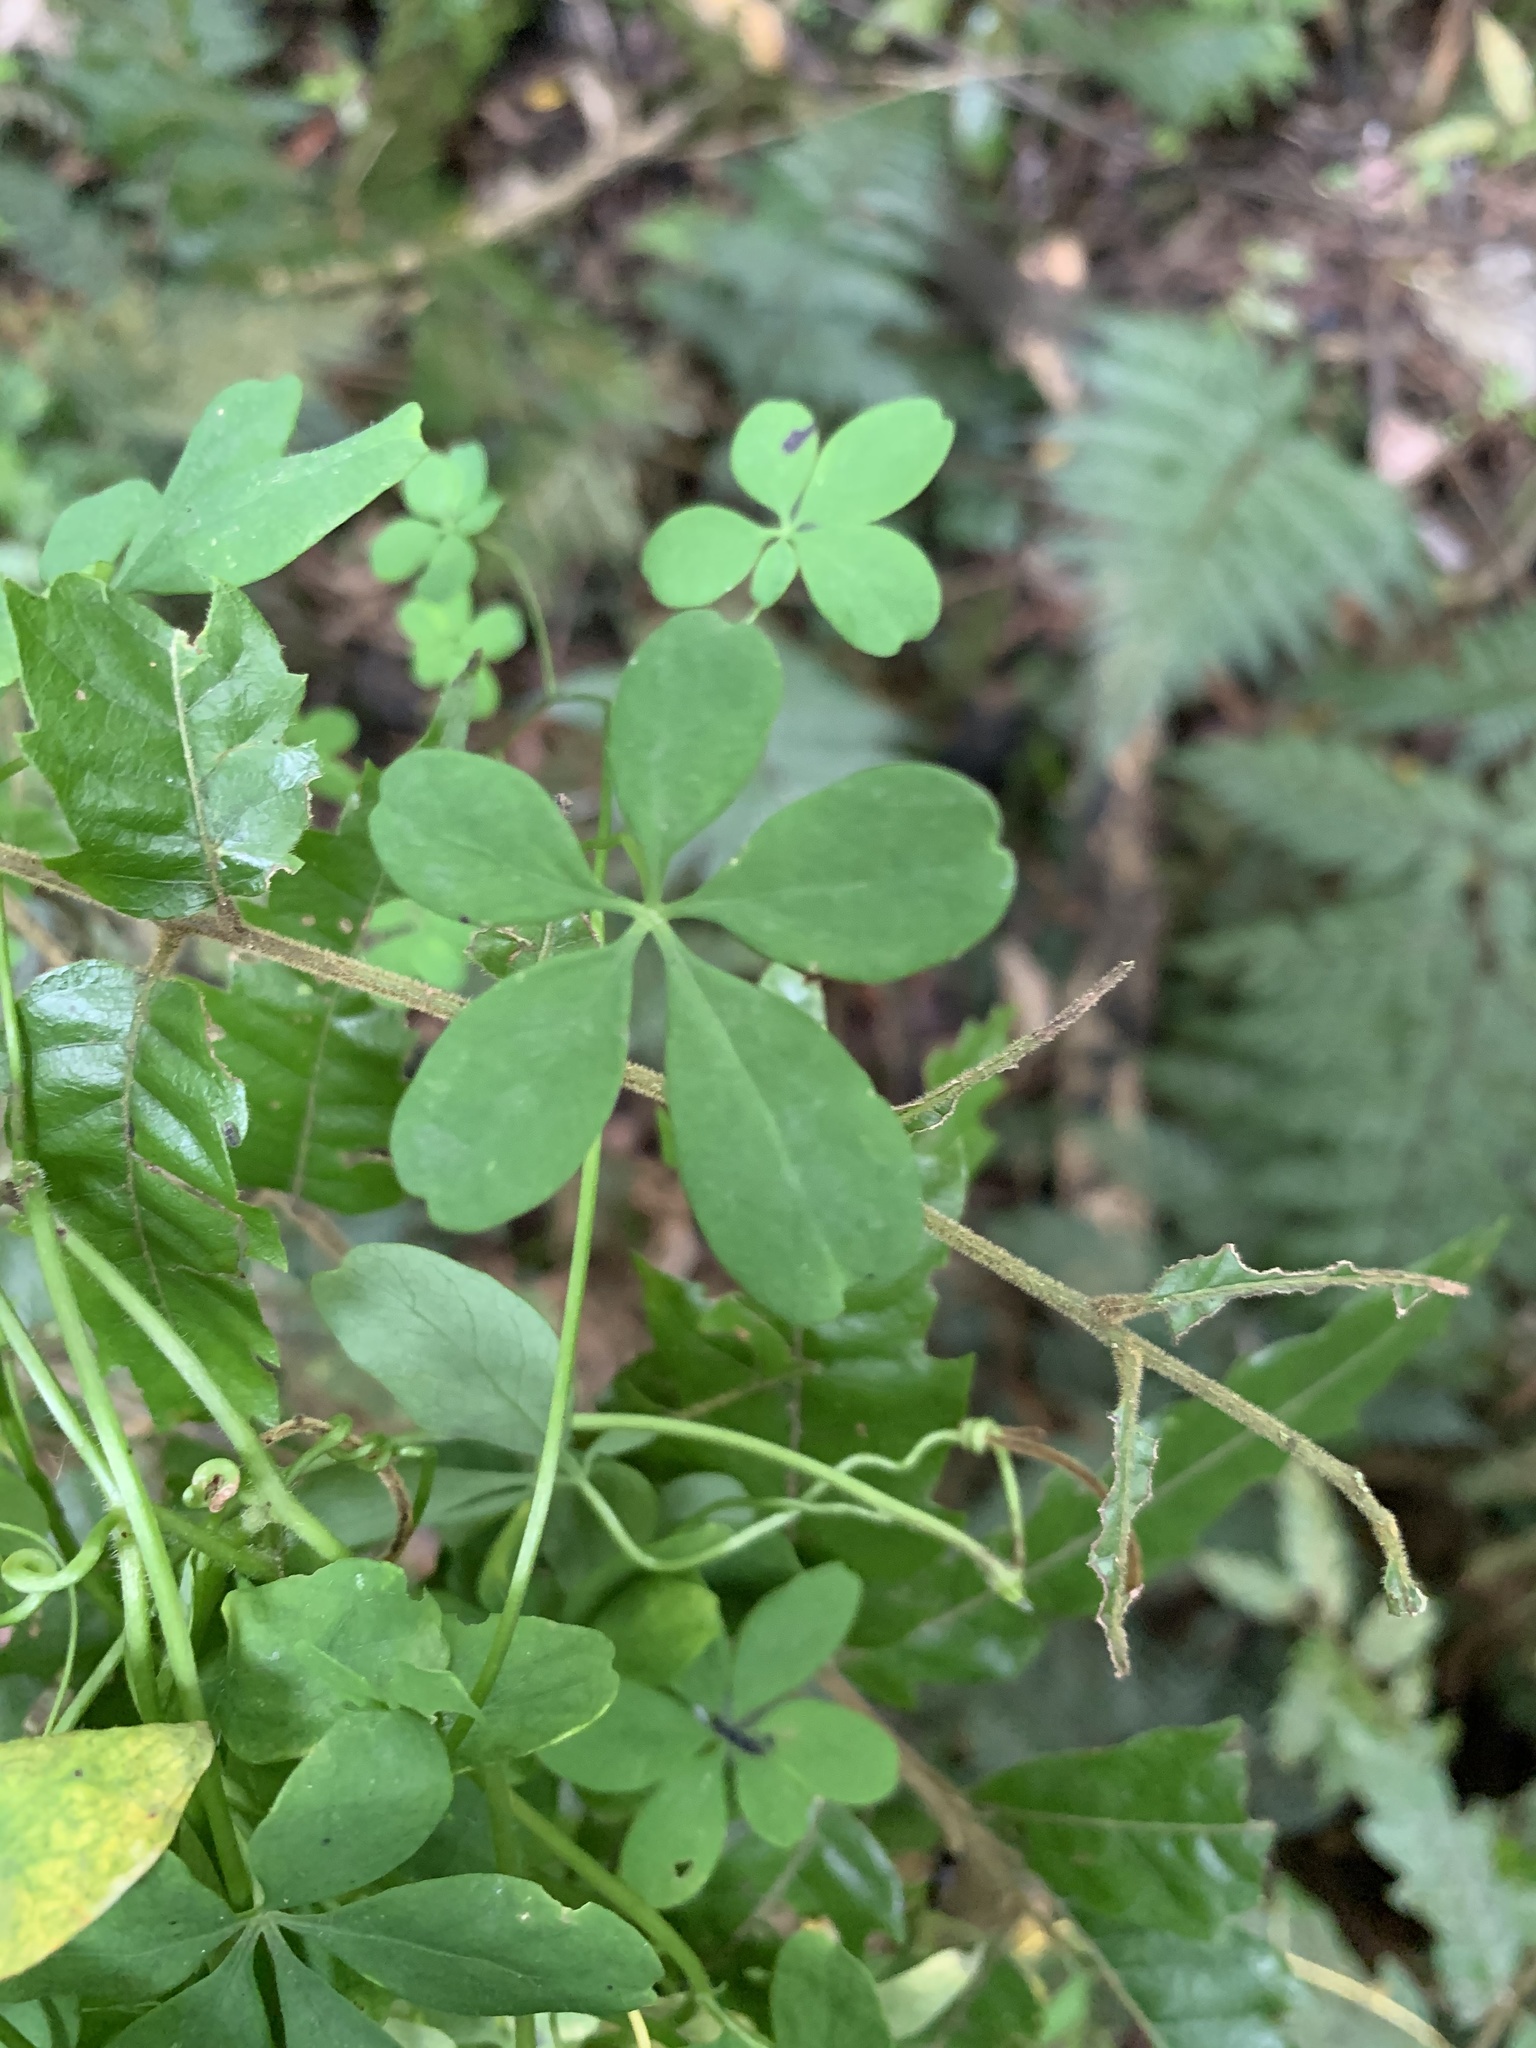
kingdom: Plantae
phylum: Tracheophyta
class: Magnoliopsida
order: Brassicales
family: Tropaeolaceae
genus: Tropaeolum
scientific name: Tropaeolum speciosum
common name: Flame nasturtium
